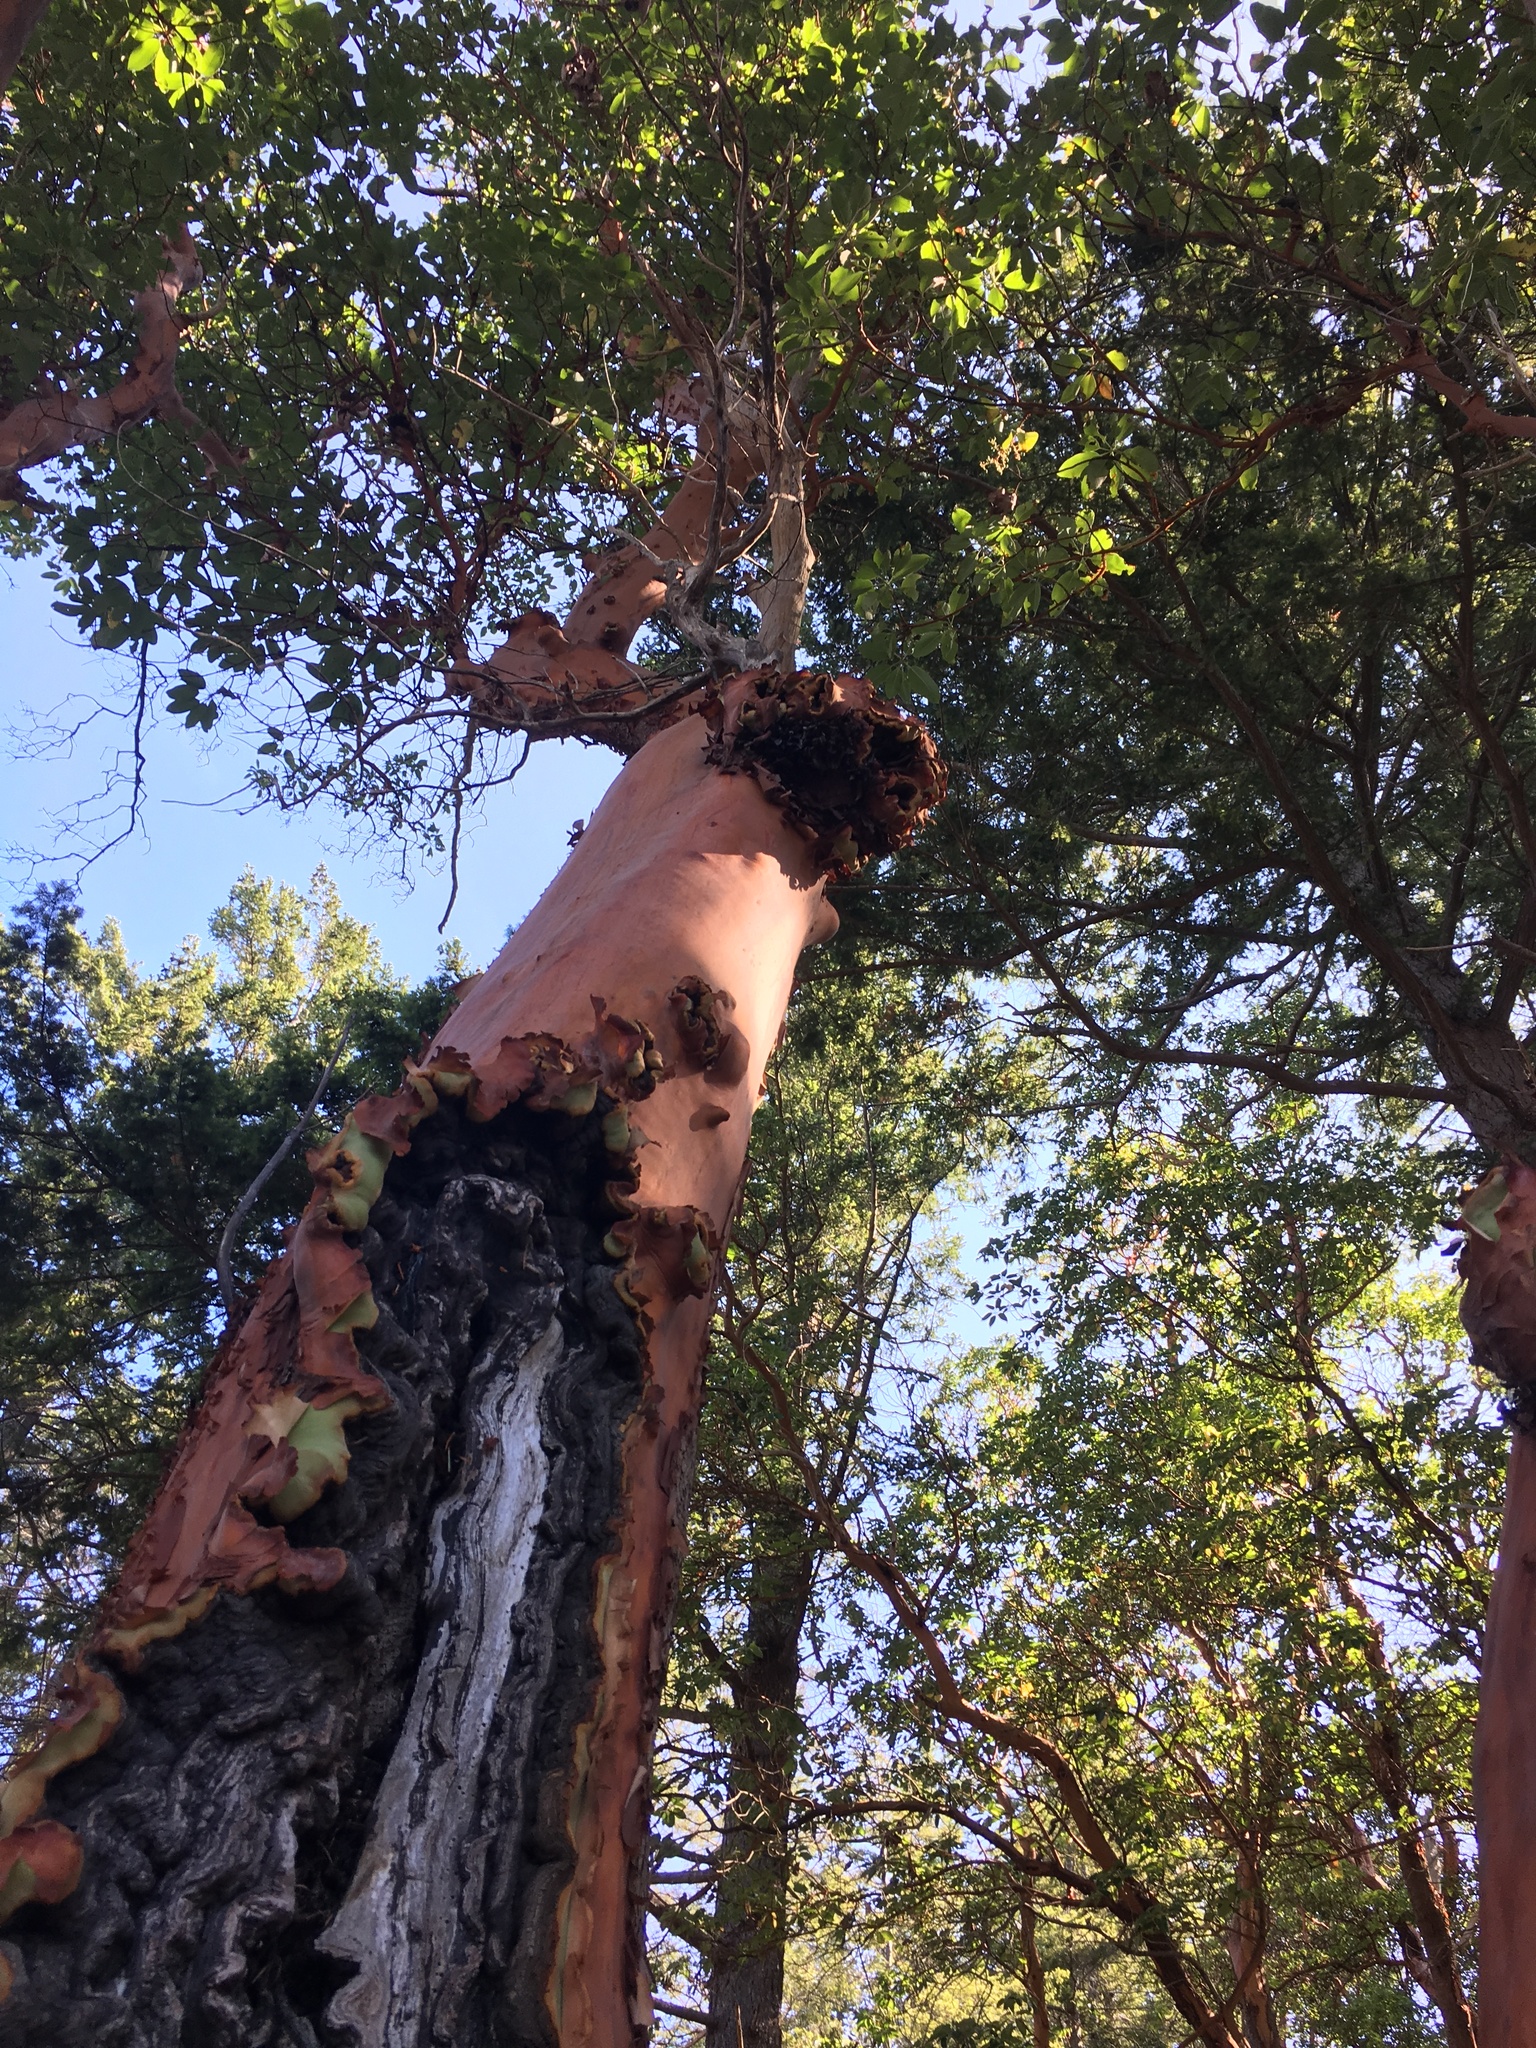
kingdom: Plantae
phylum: Tracheophyta
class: Magnoliopsida
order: Ericales
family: Ericaceae
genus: Arbutus
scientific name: Arbutus menziesii
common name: Pacific madrone
